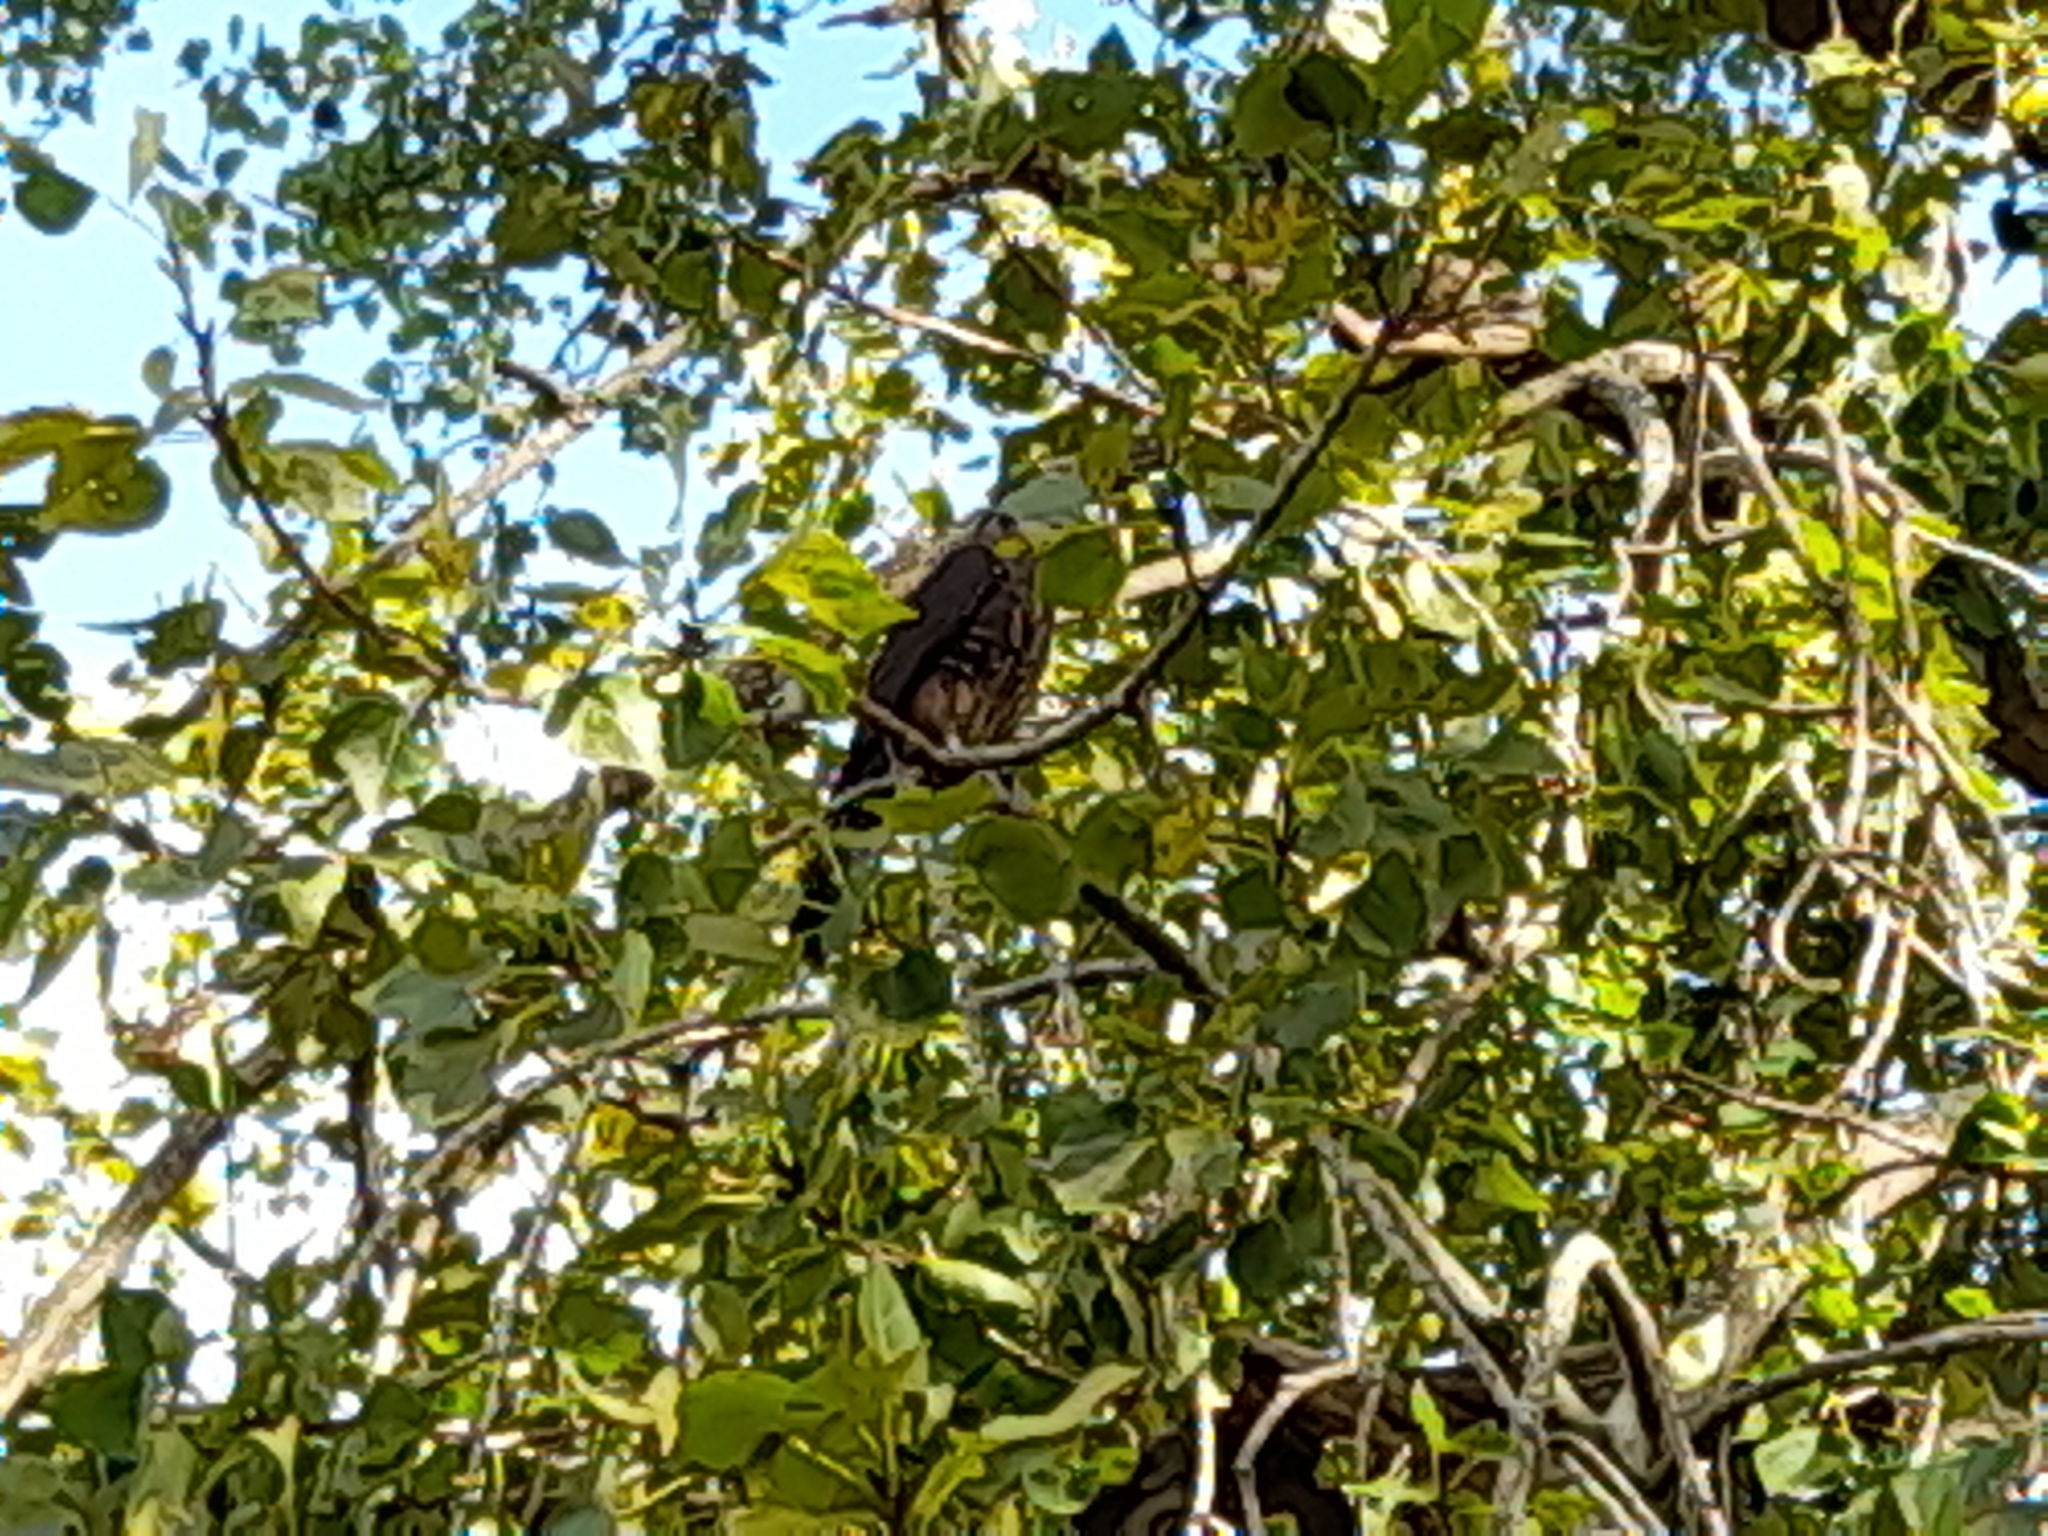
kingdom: Animalia
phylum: Chordata
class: Aves
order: Falconiformes
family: Falconidae
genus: Falco
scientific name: Falco novaeseelandiae
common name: New zealand falcon
